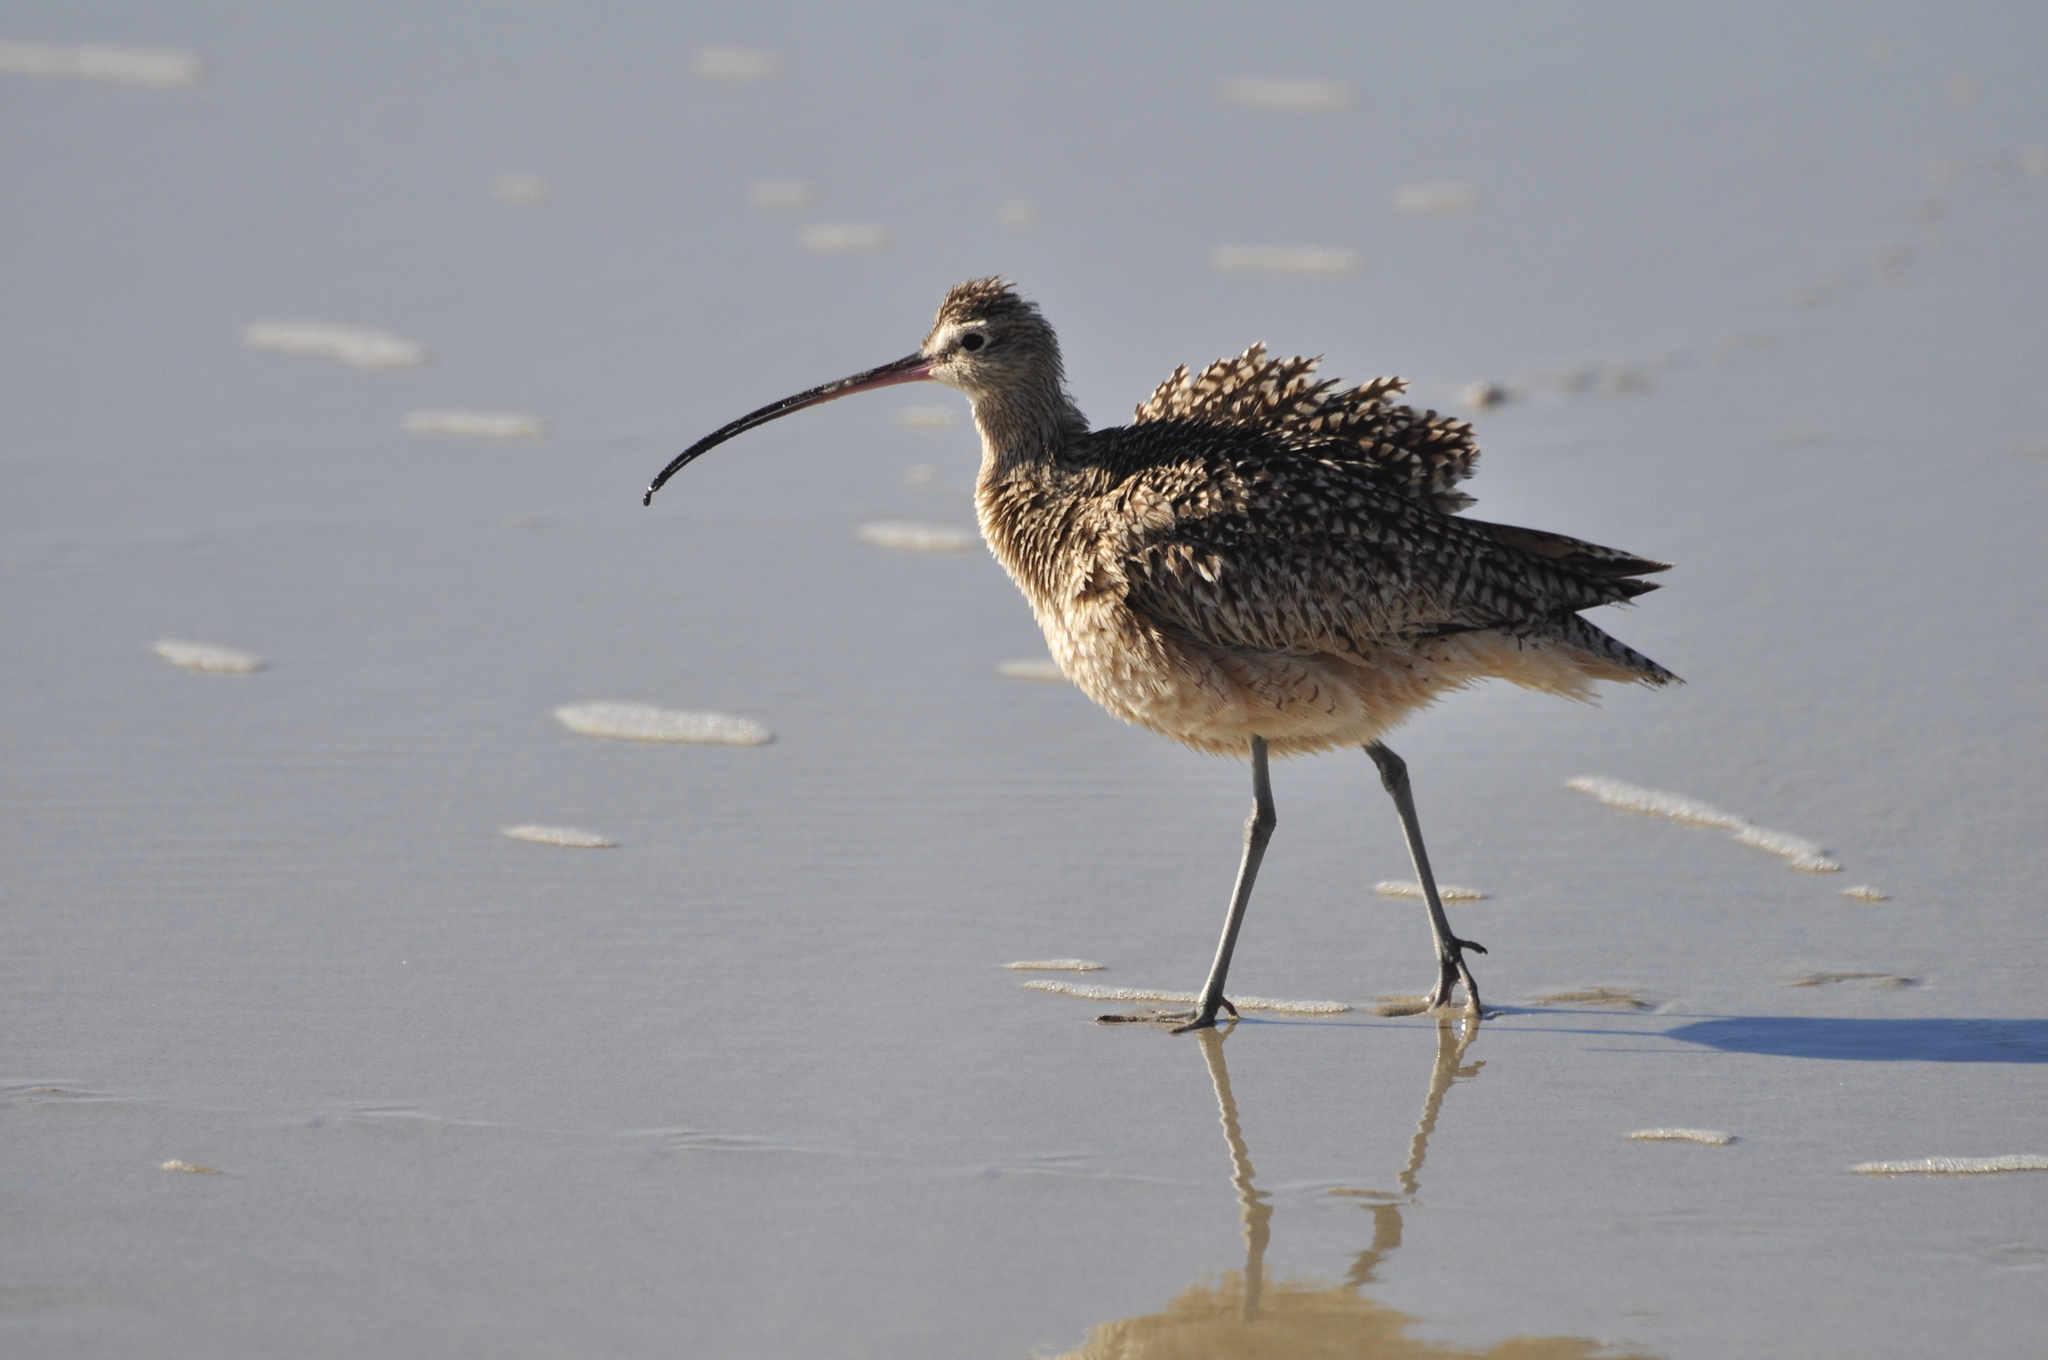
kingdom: Animalia
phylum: Chordata
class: Aves
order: Charadriiformes
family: Scolopacidae
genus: Numenius
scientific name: Numenius americanus
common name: Long-billed curlew
